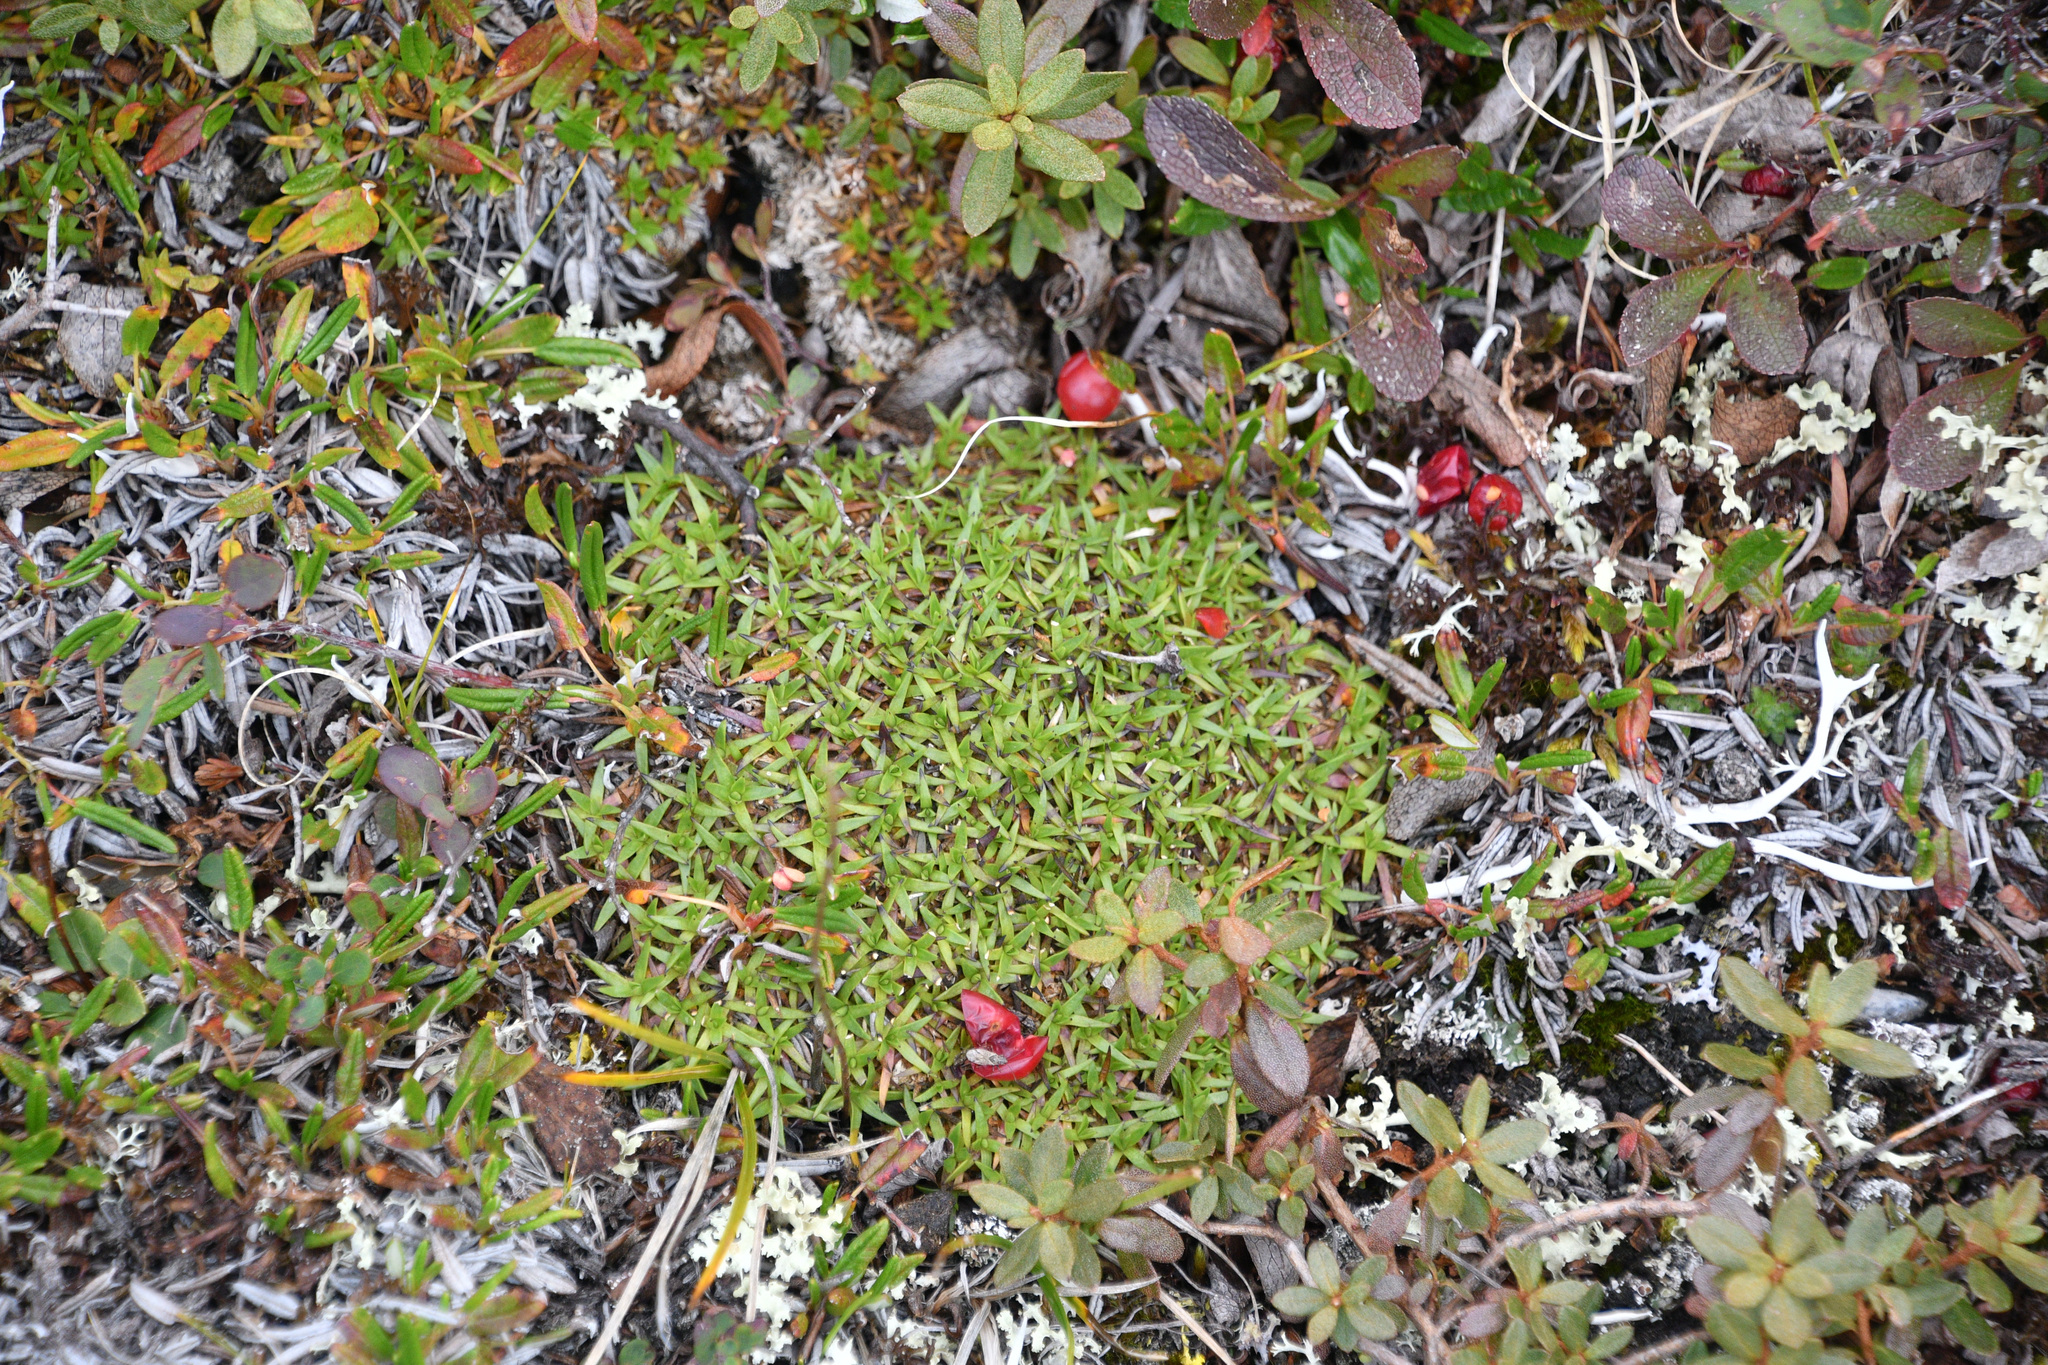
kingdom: Plantae
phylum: Tracheophyta
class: Magnoliopsida
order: Caryophyllales
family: Caryophyllaceae
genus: Silene
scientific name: Silene acaulis
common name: Moss campion
